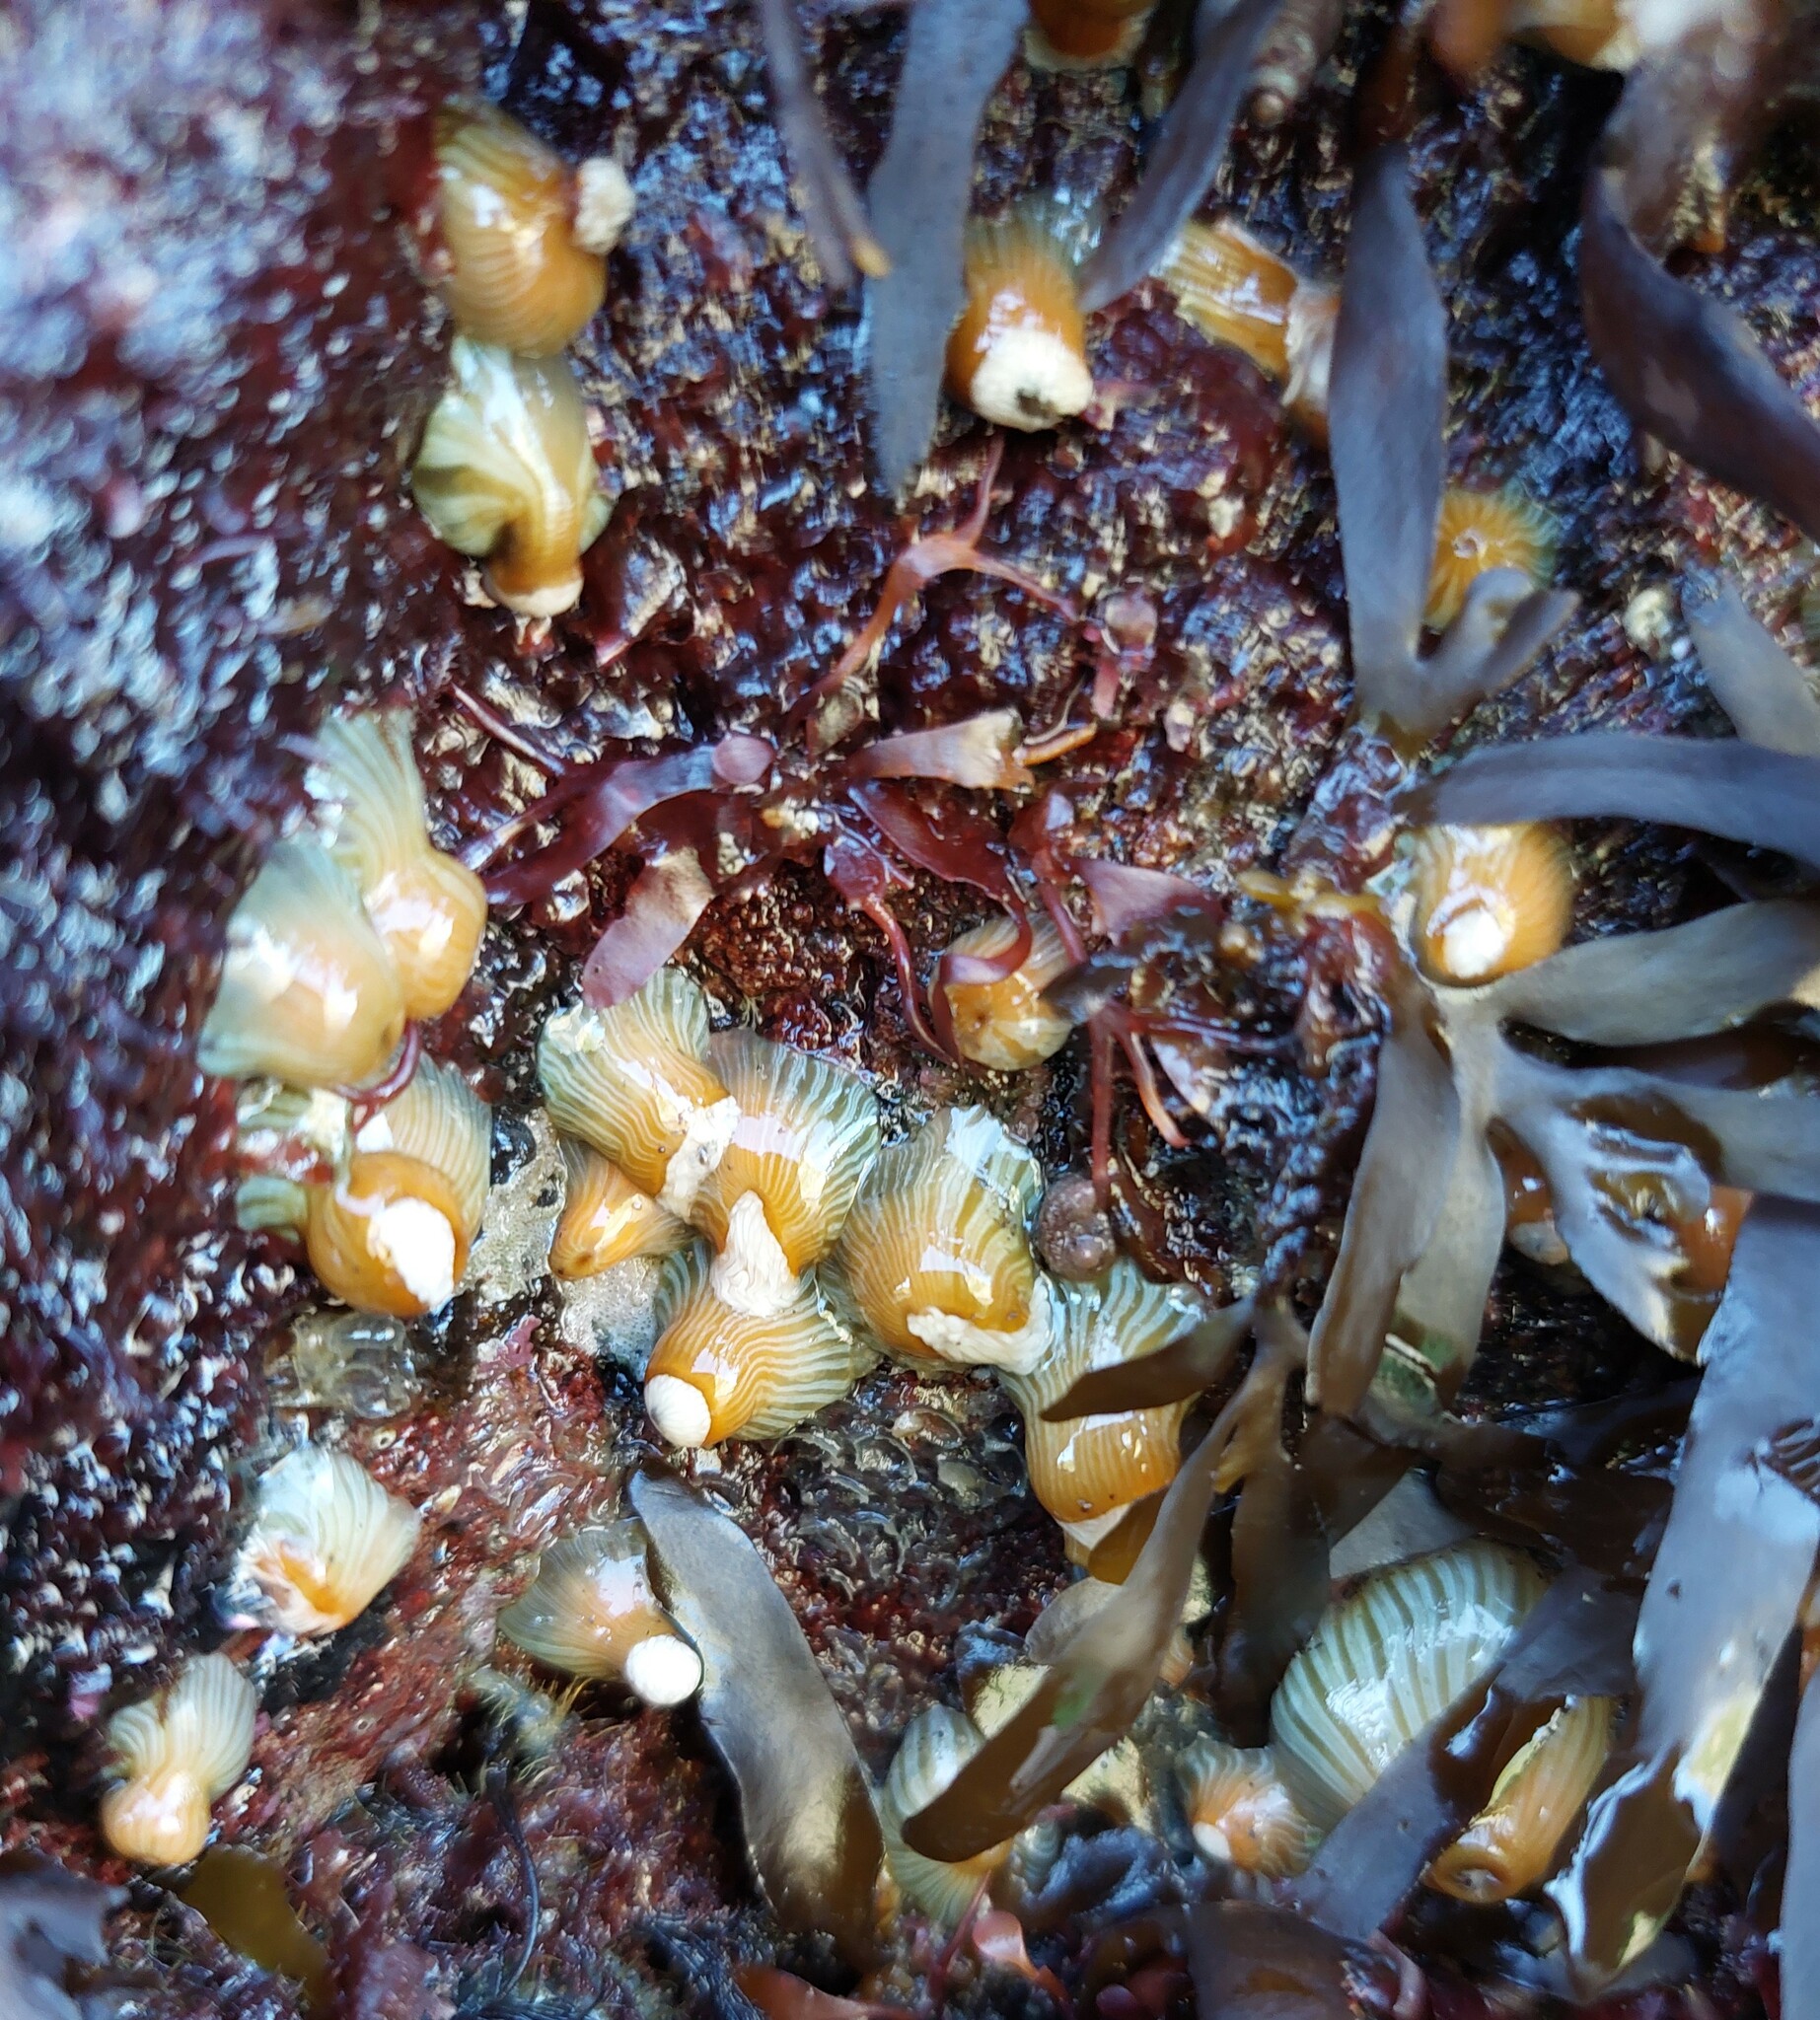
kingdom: Animalia
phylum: Cnidaria
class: Anthozoa
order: Actiniaria
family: Sagartiidae
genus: Anthothoe
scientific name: Anthothoe albocincta
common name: Orange striped anemone
